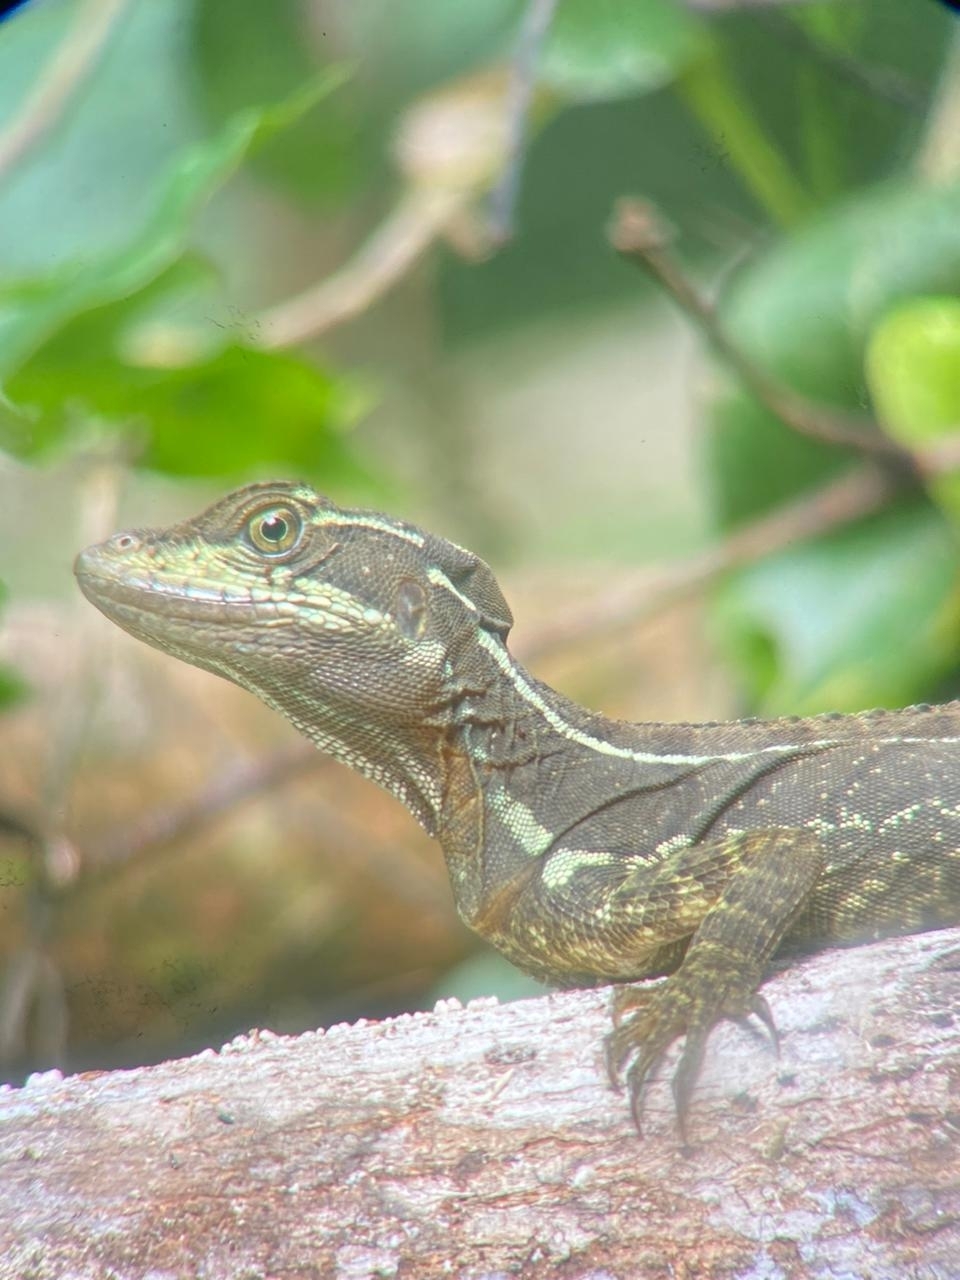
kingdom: Animalia
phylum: Chordata
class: Squamata
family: Corytophanidae
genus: Basiliscus
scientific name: Basiliscus basiliscus
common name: Common basilisk
